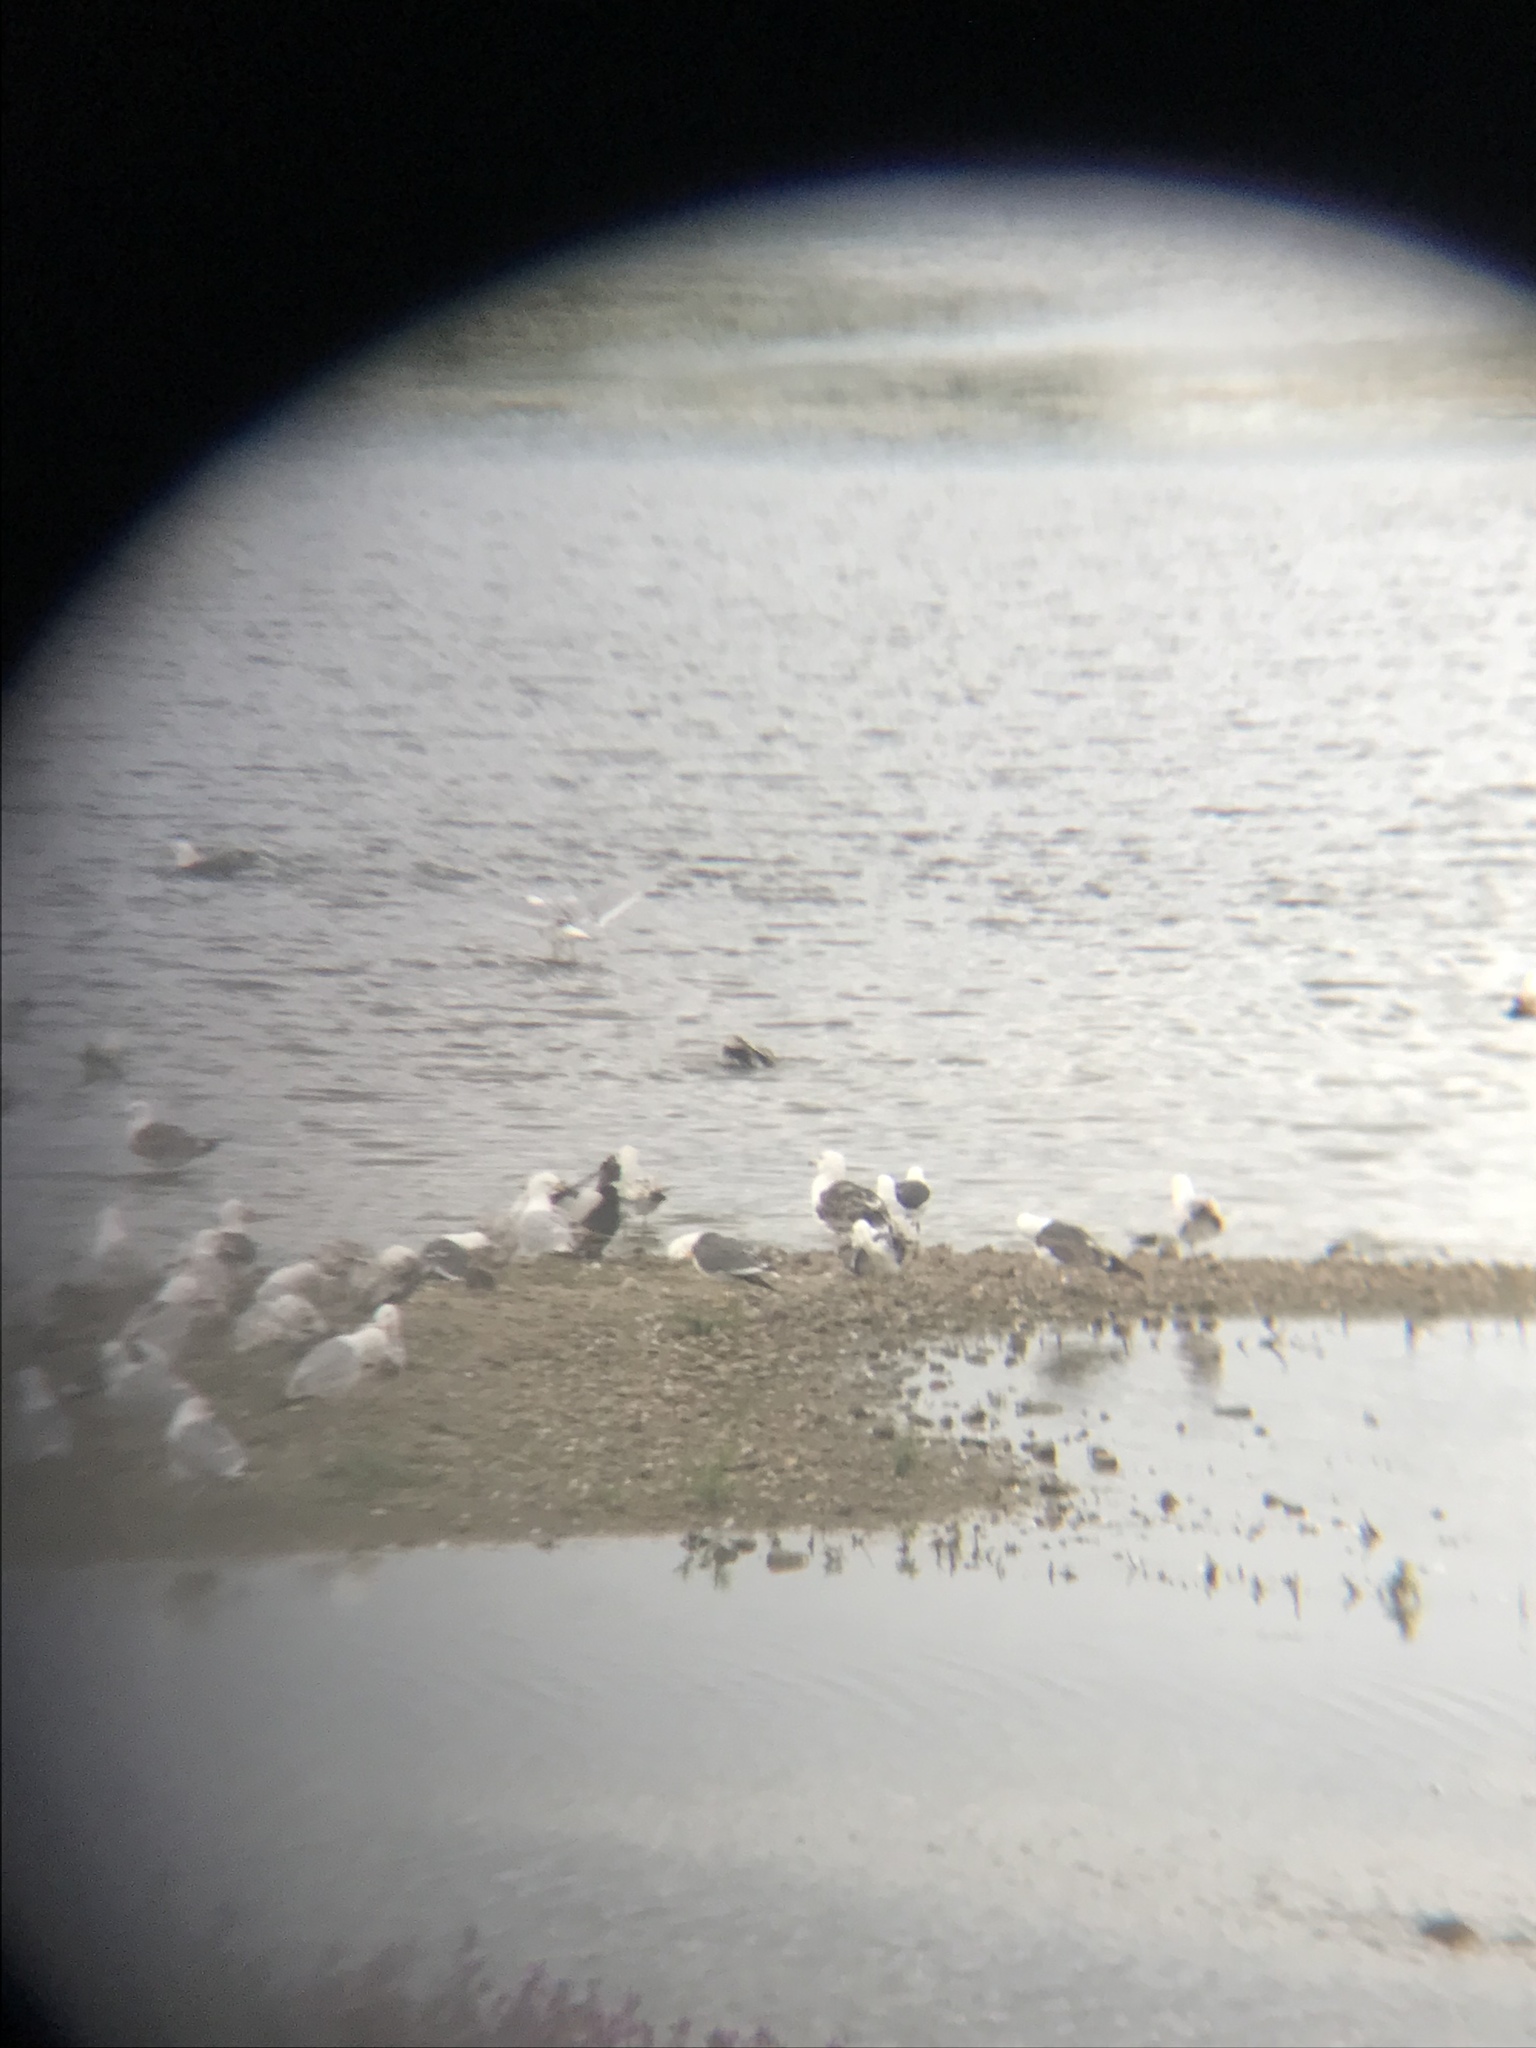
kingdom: Animalia
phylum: Chordata
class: Aves
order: Charadriiformes
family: Laridae
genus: Larus
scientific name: Larus argentatus
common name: Herring gull
